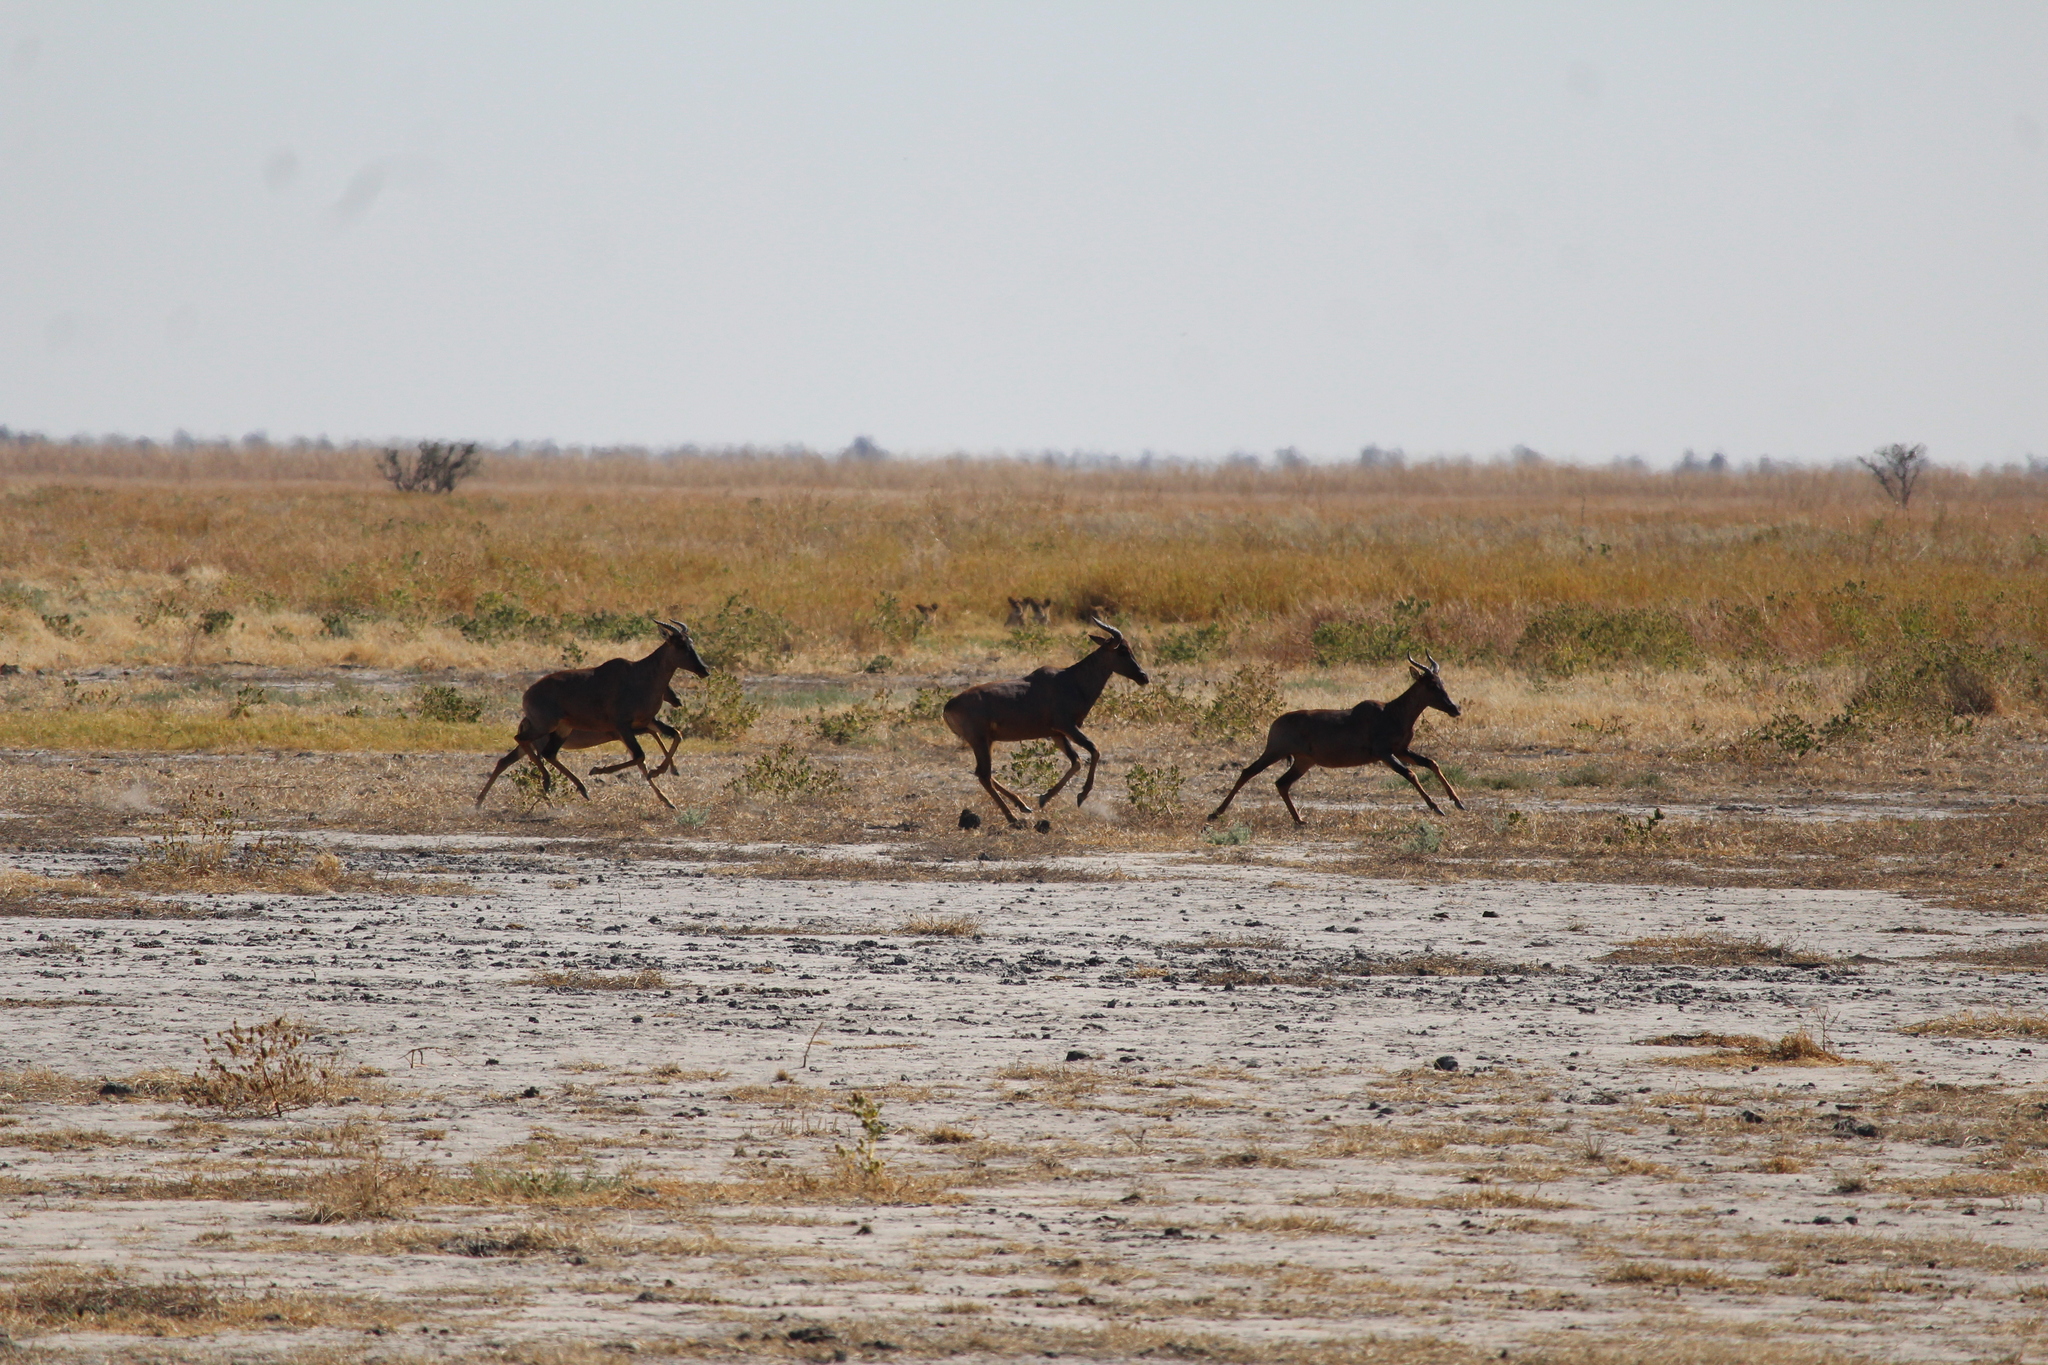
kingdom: Animalia
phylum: Chordata
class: Mammalia
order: Artiodactyla
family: Bovidae
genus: Damaliscus
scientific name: Damaliscus lunatus
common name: Common tsessebe
